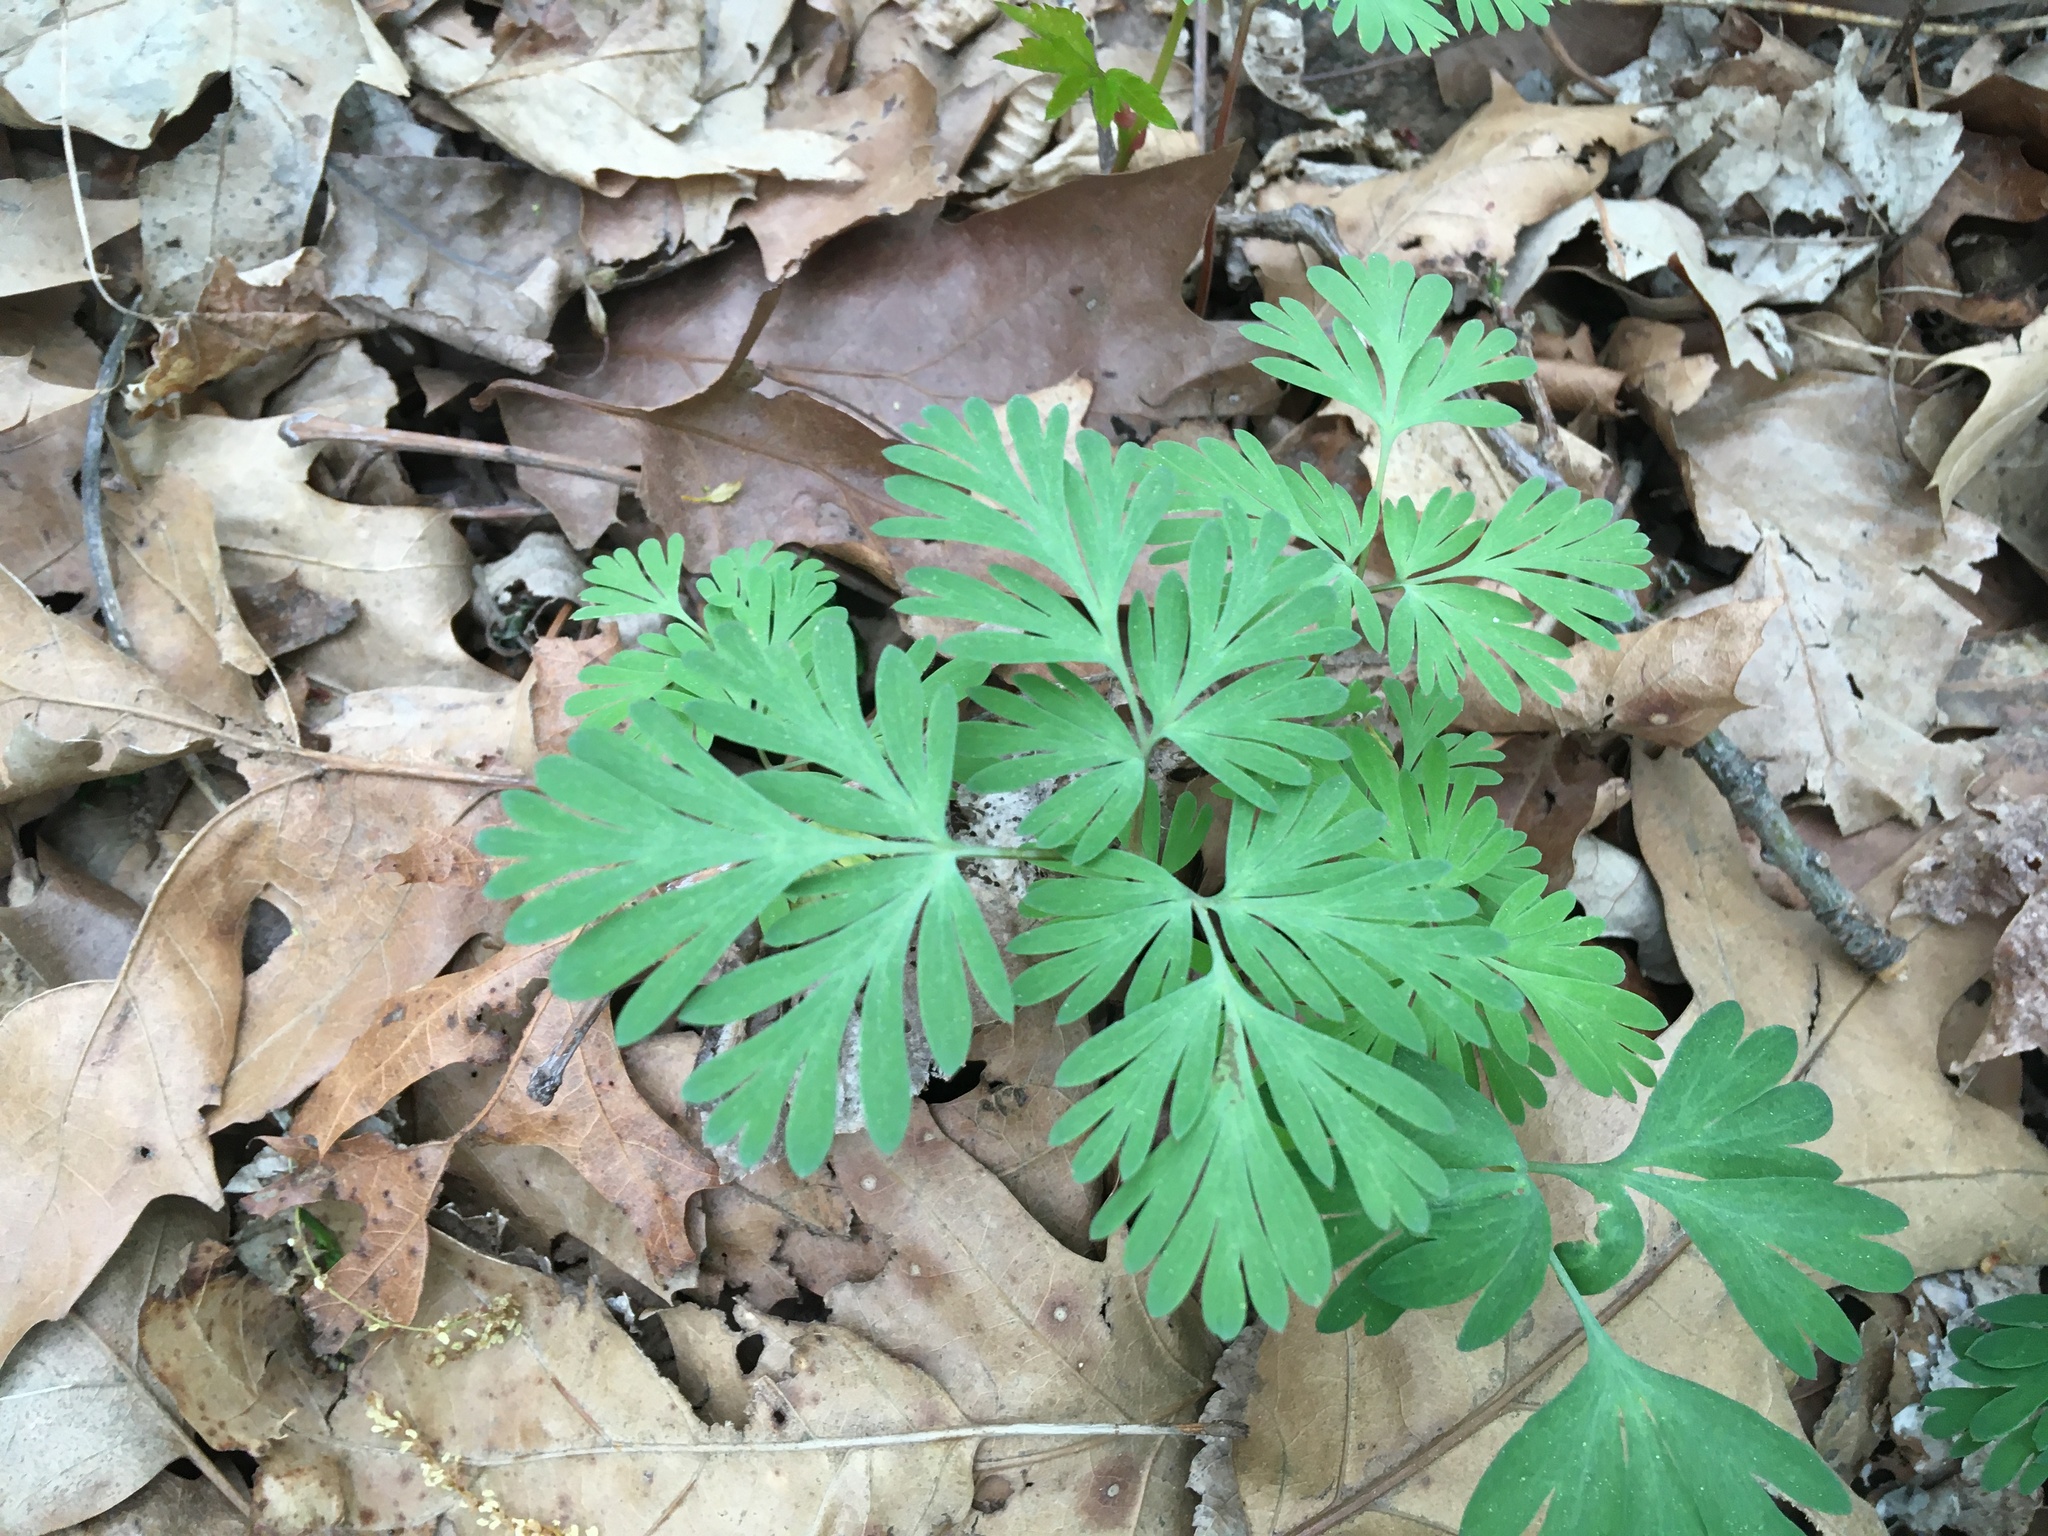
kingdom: Plantae
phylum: Tracheophyta
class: Magnoliopsida
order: Ranunculales
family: Papaveraceae
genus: Dicentra
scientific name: Dicentra cucullaria
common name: Dutchman's breeches
